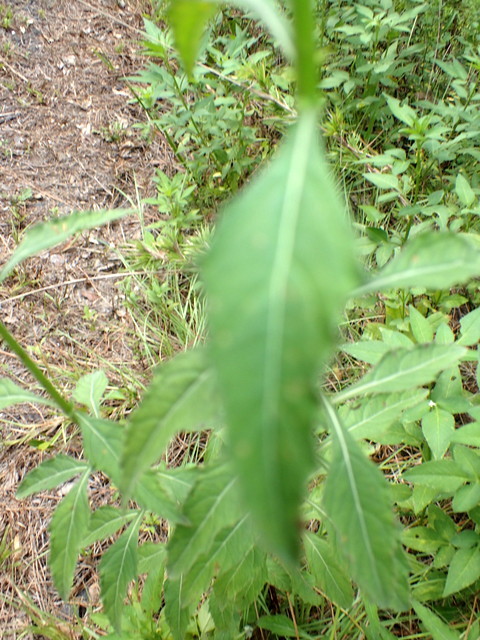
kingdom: Plantae
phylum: Tracheophyta
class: Magnoliopsida
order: Lamiales
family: Lamiaceae
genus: Hyptis
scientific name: Hyptis alata
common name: Cluster bush-mint
